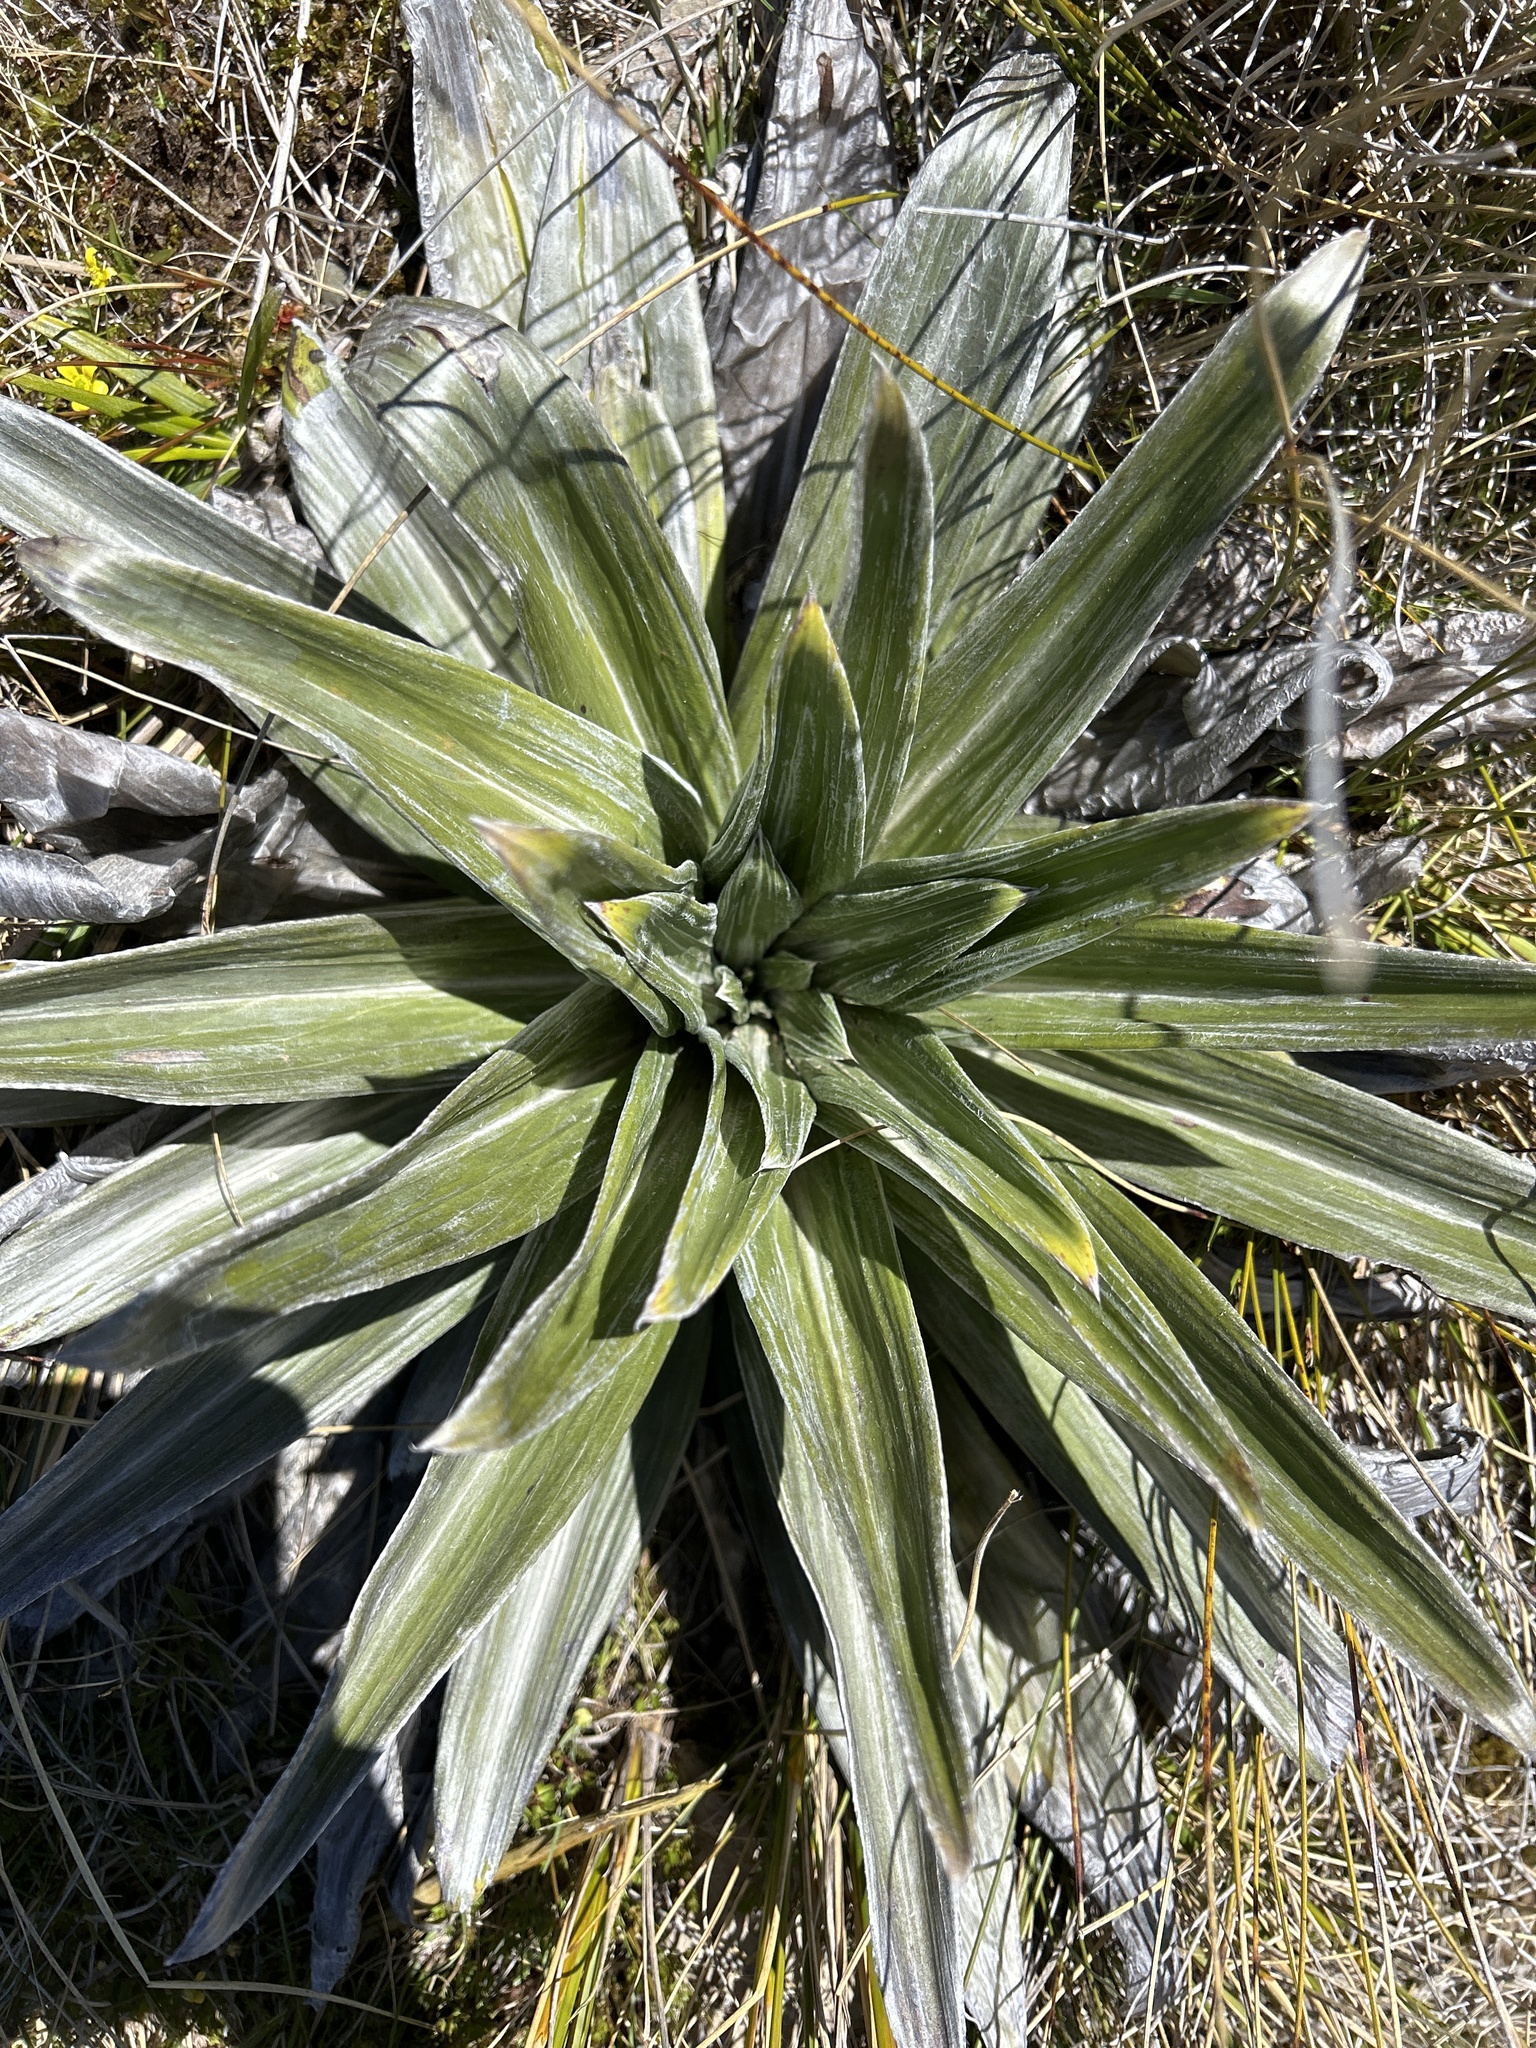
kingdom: Plantae
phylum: Tracheophyta
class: Magnoliopsida
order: Asterales
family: Asteraceae
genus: Celmisia
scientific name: Celmisia semicordata
